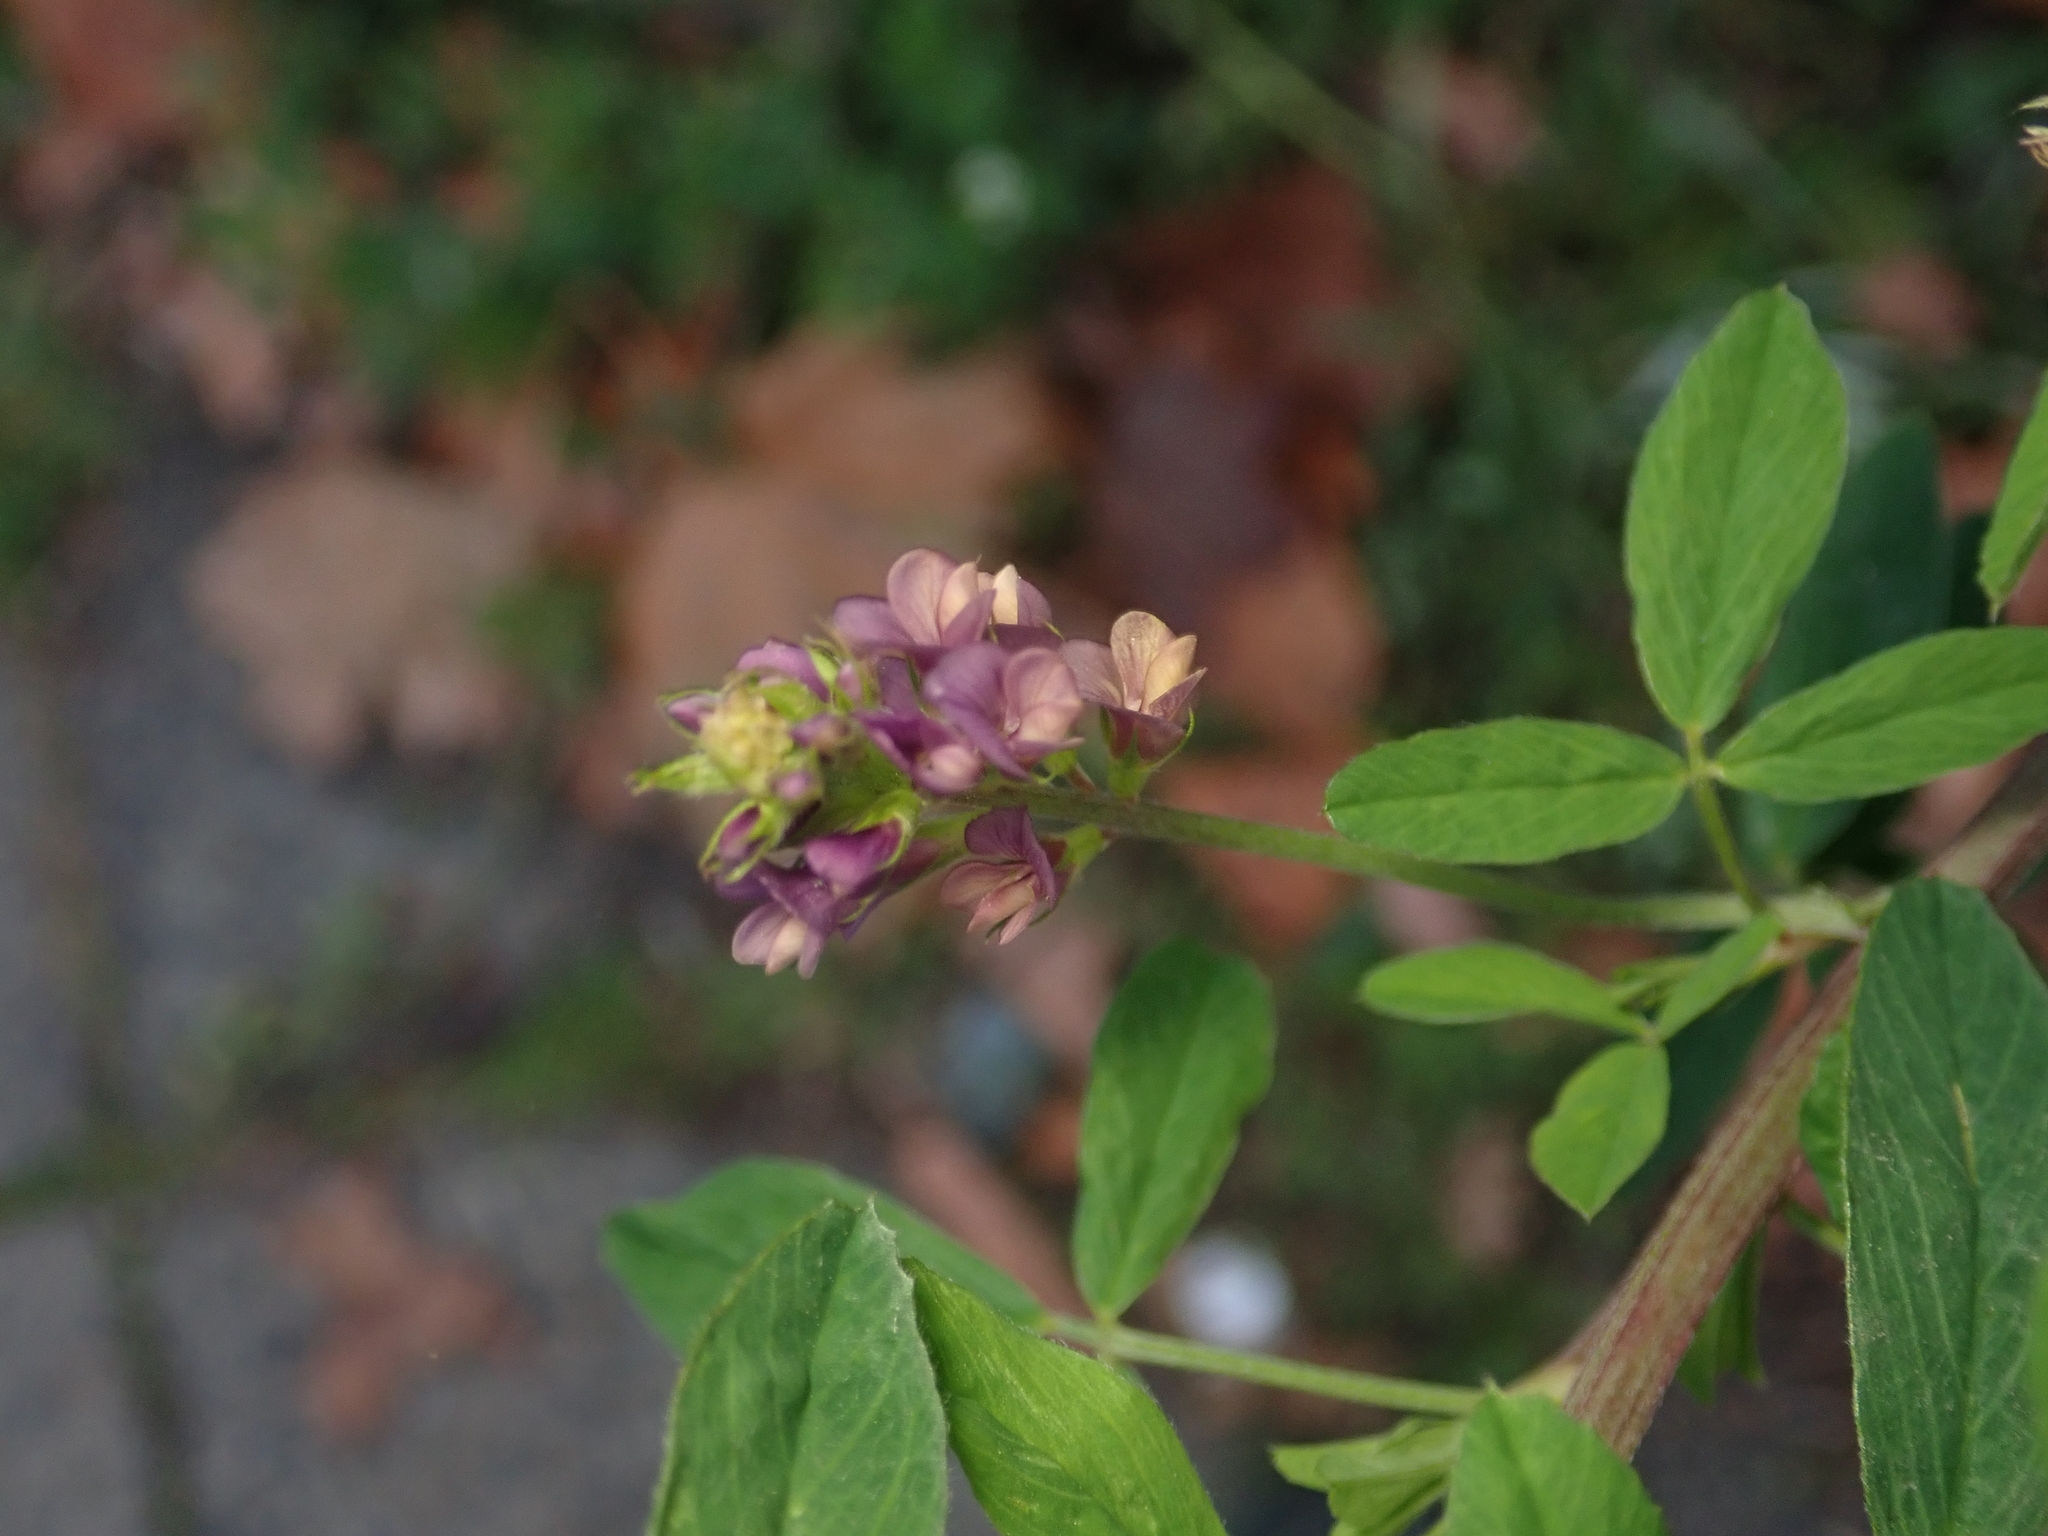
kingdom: Plantae
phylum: Tracheophyta
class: Magnoliopsida
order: Fabales
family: Fabaceae
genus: Medicago
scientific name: Medicago varia
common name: Sand lucerne
